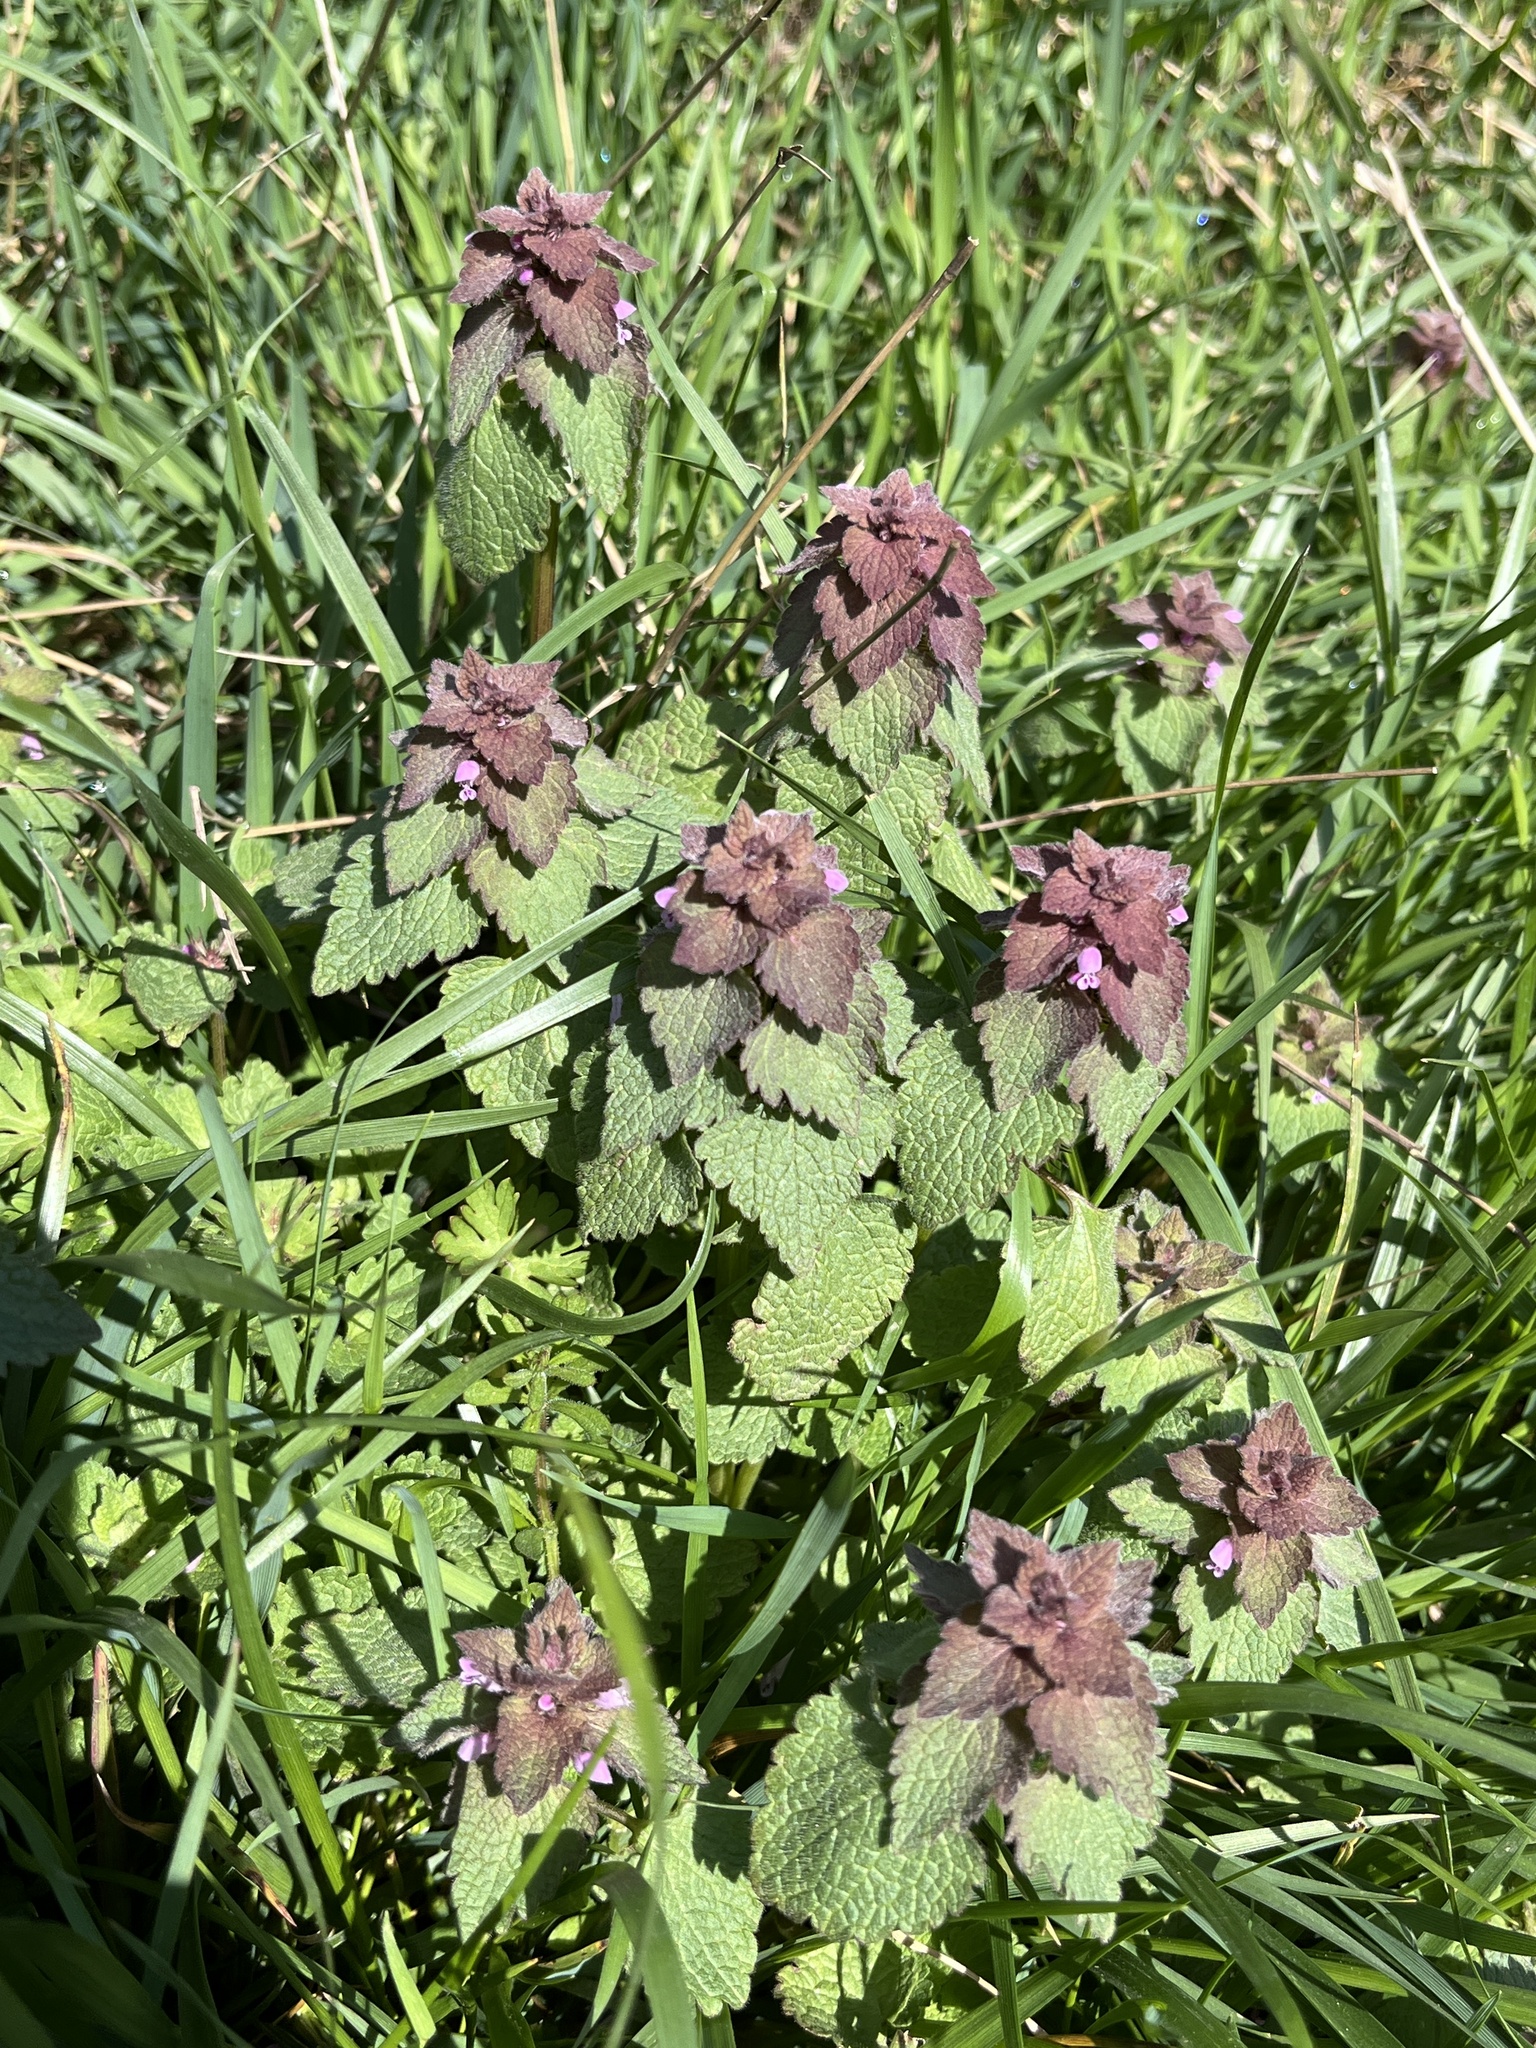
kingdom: Plantae
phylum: Tracheophyta
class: Magnoliopsida
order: Lamiales
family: Lamiaceae
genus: Lamium
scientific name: Lamium purpureum
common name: Red dead-nettle
